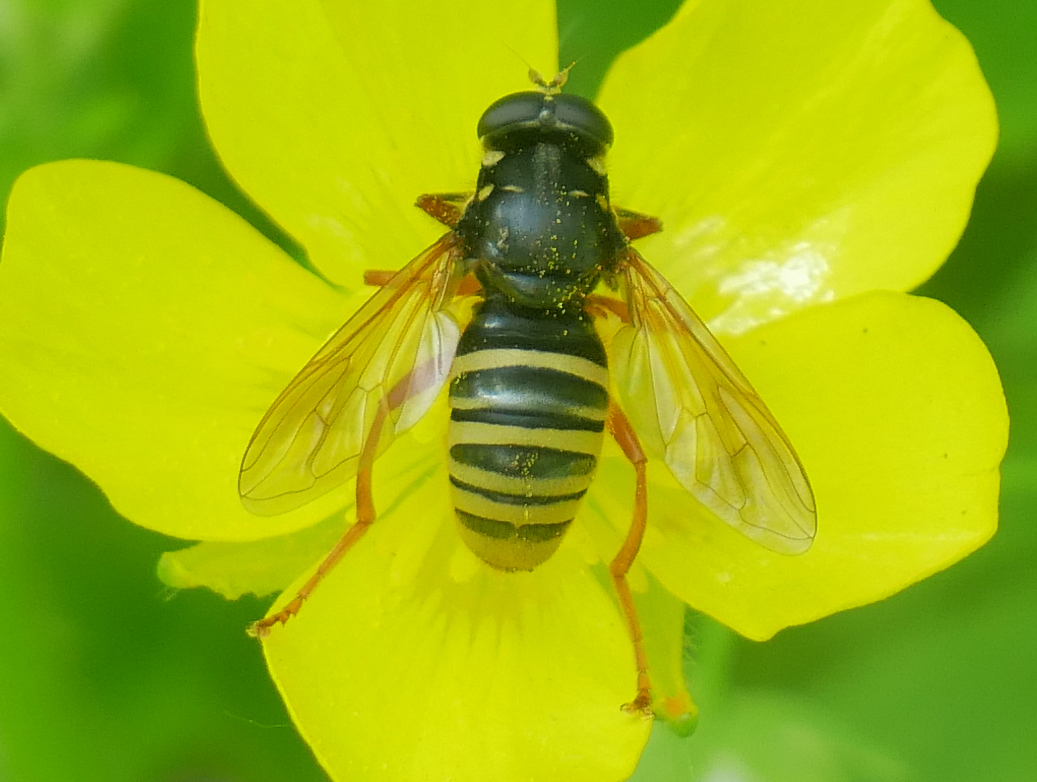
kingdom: Animalia
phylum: Arthropoda
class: Insecta
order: Diptera
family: Syrphidae
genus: Temnostoma
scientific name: Temnostoma apiforme
